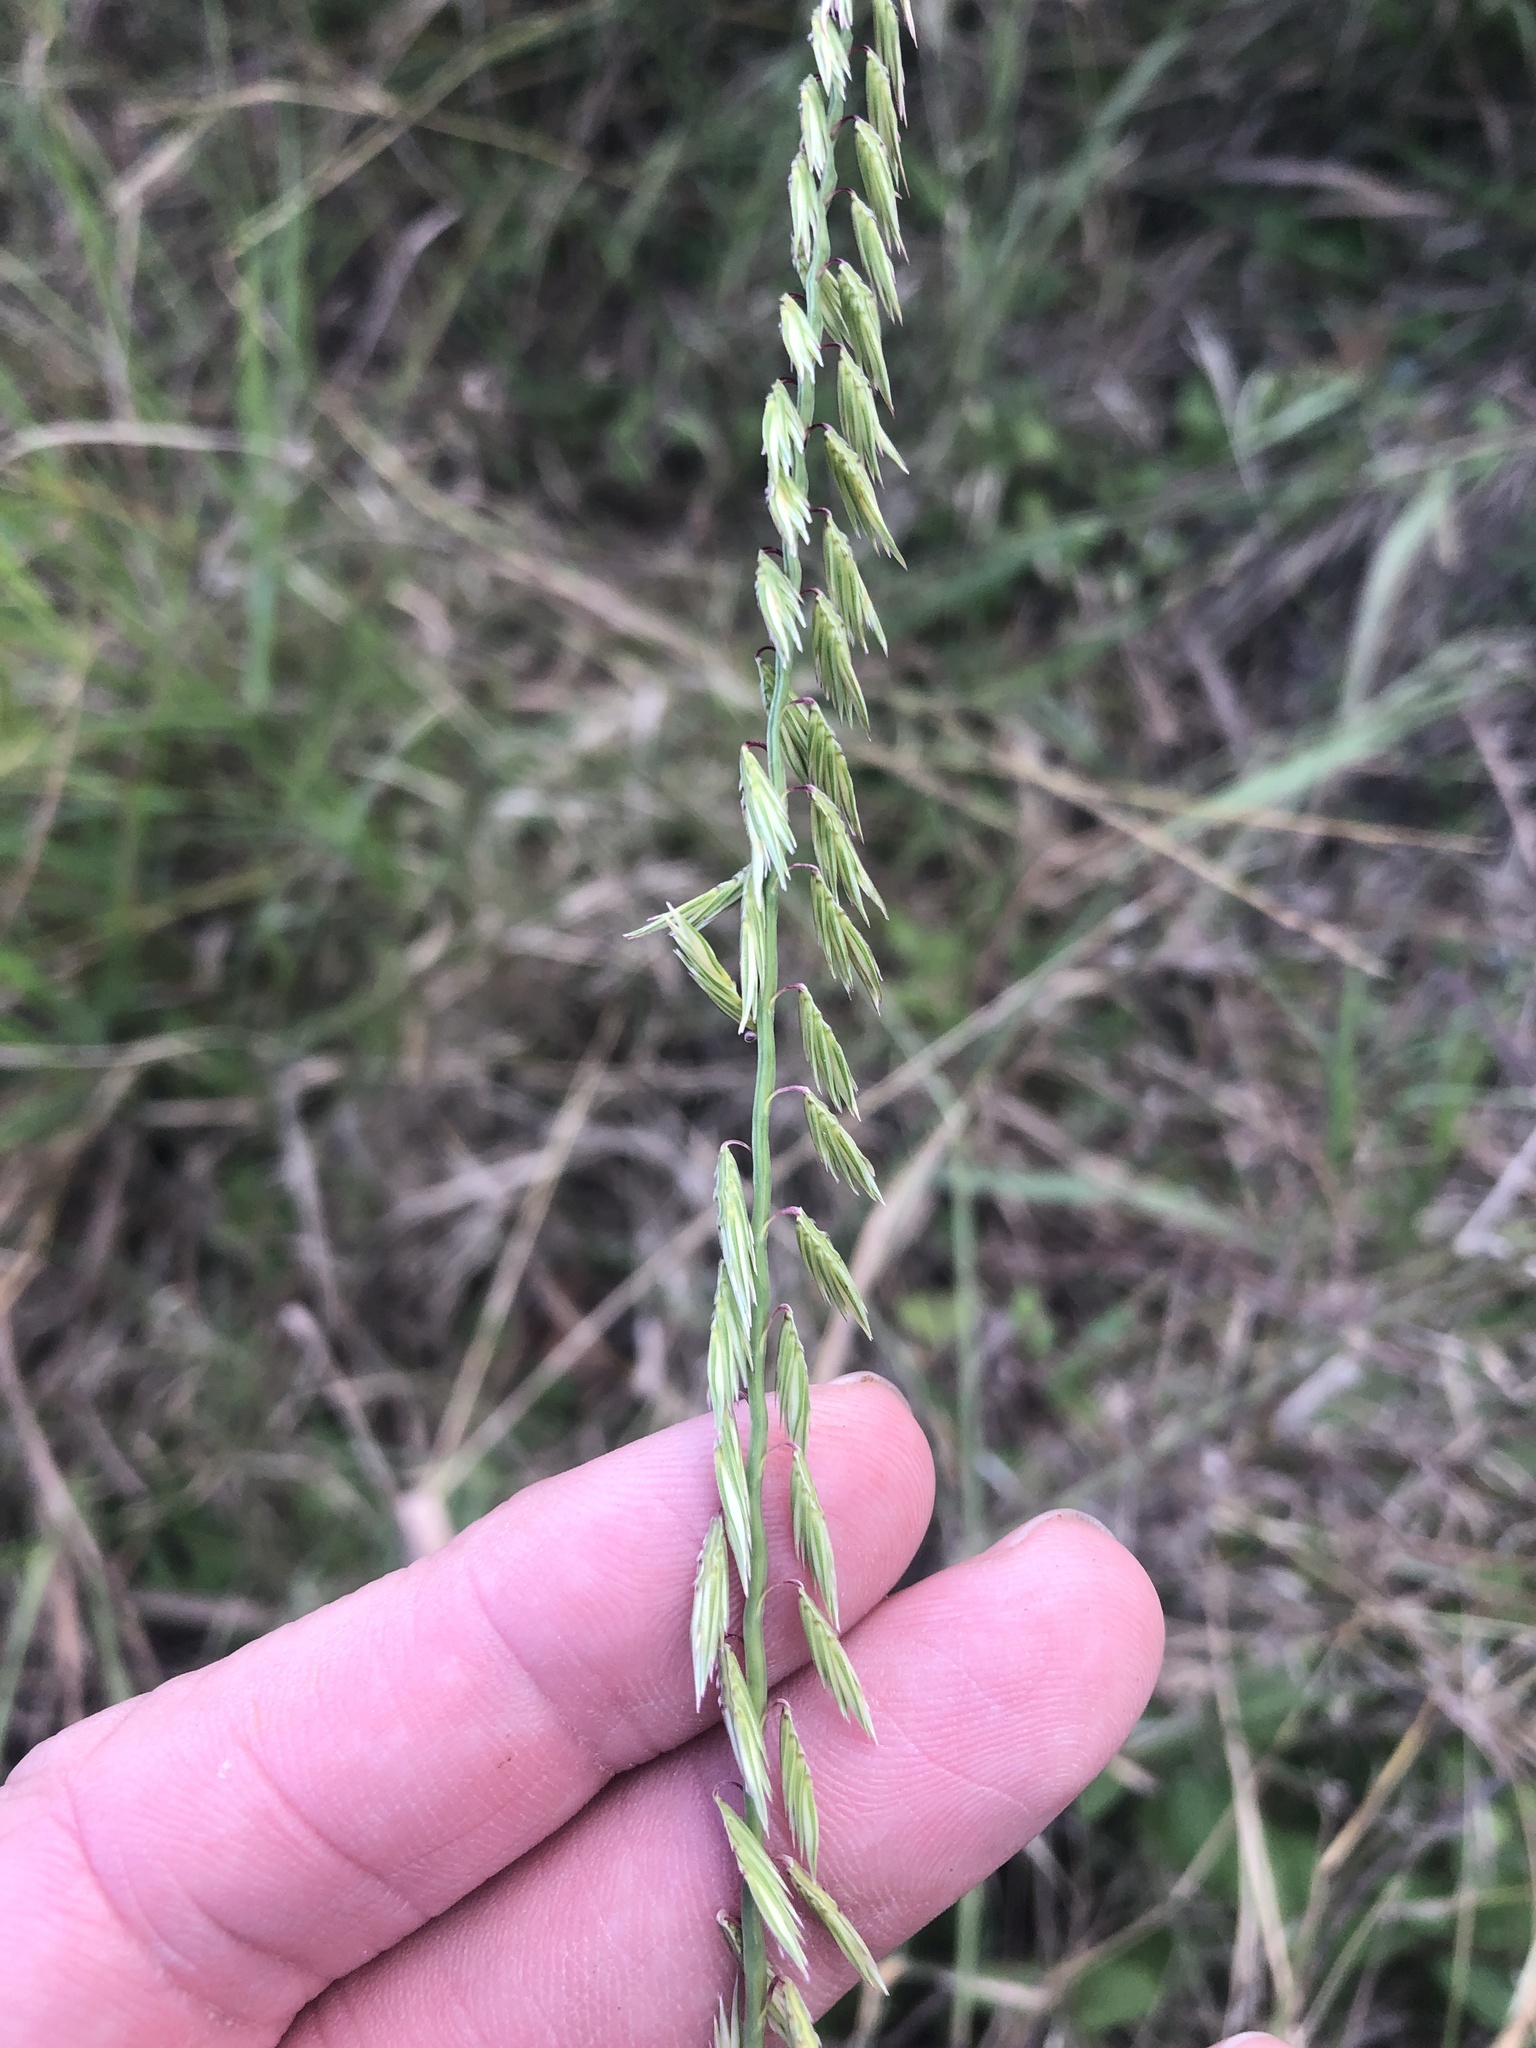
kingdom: Plantae
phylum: Tracheophyta
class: Liliopsida
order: Poales
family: Poaceae
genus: Bouteloua
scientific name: Bouteloua curtipendula
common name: Side-oats grama
